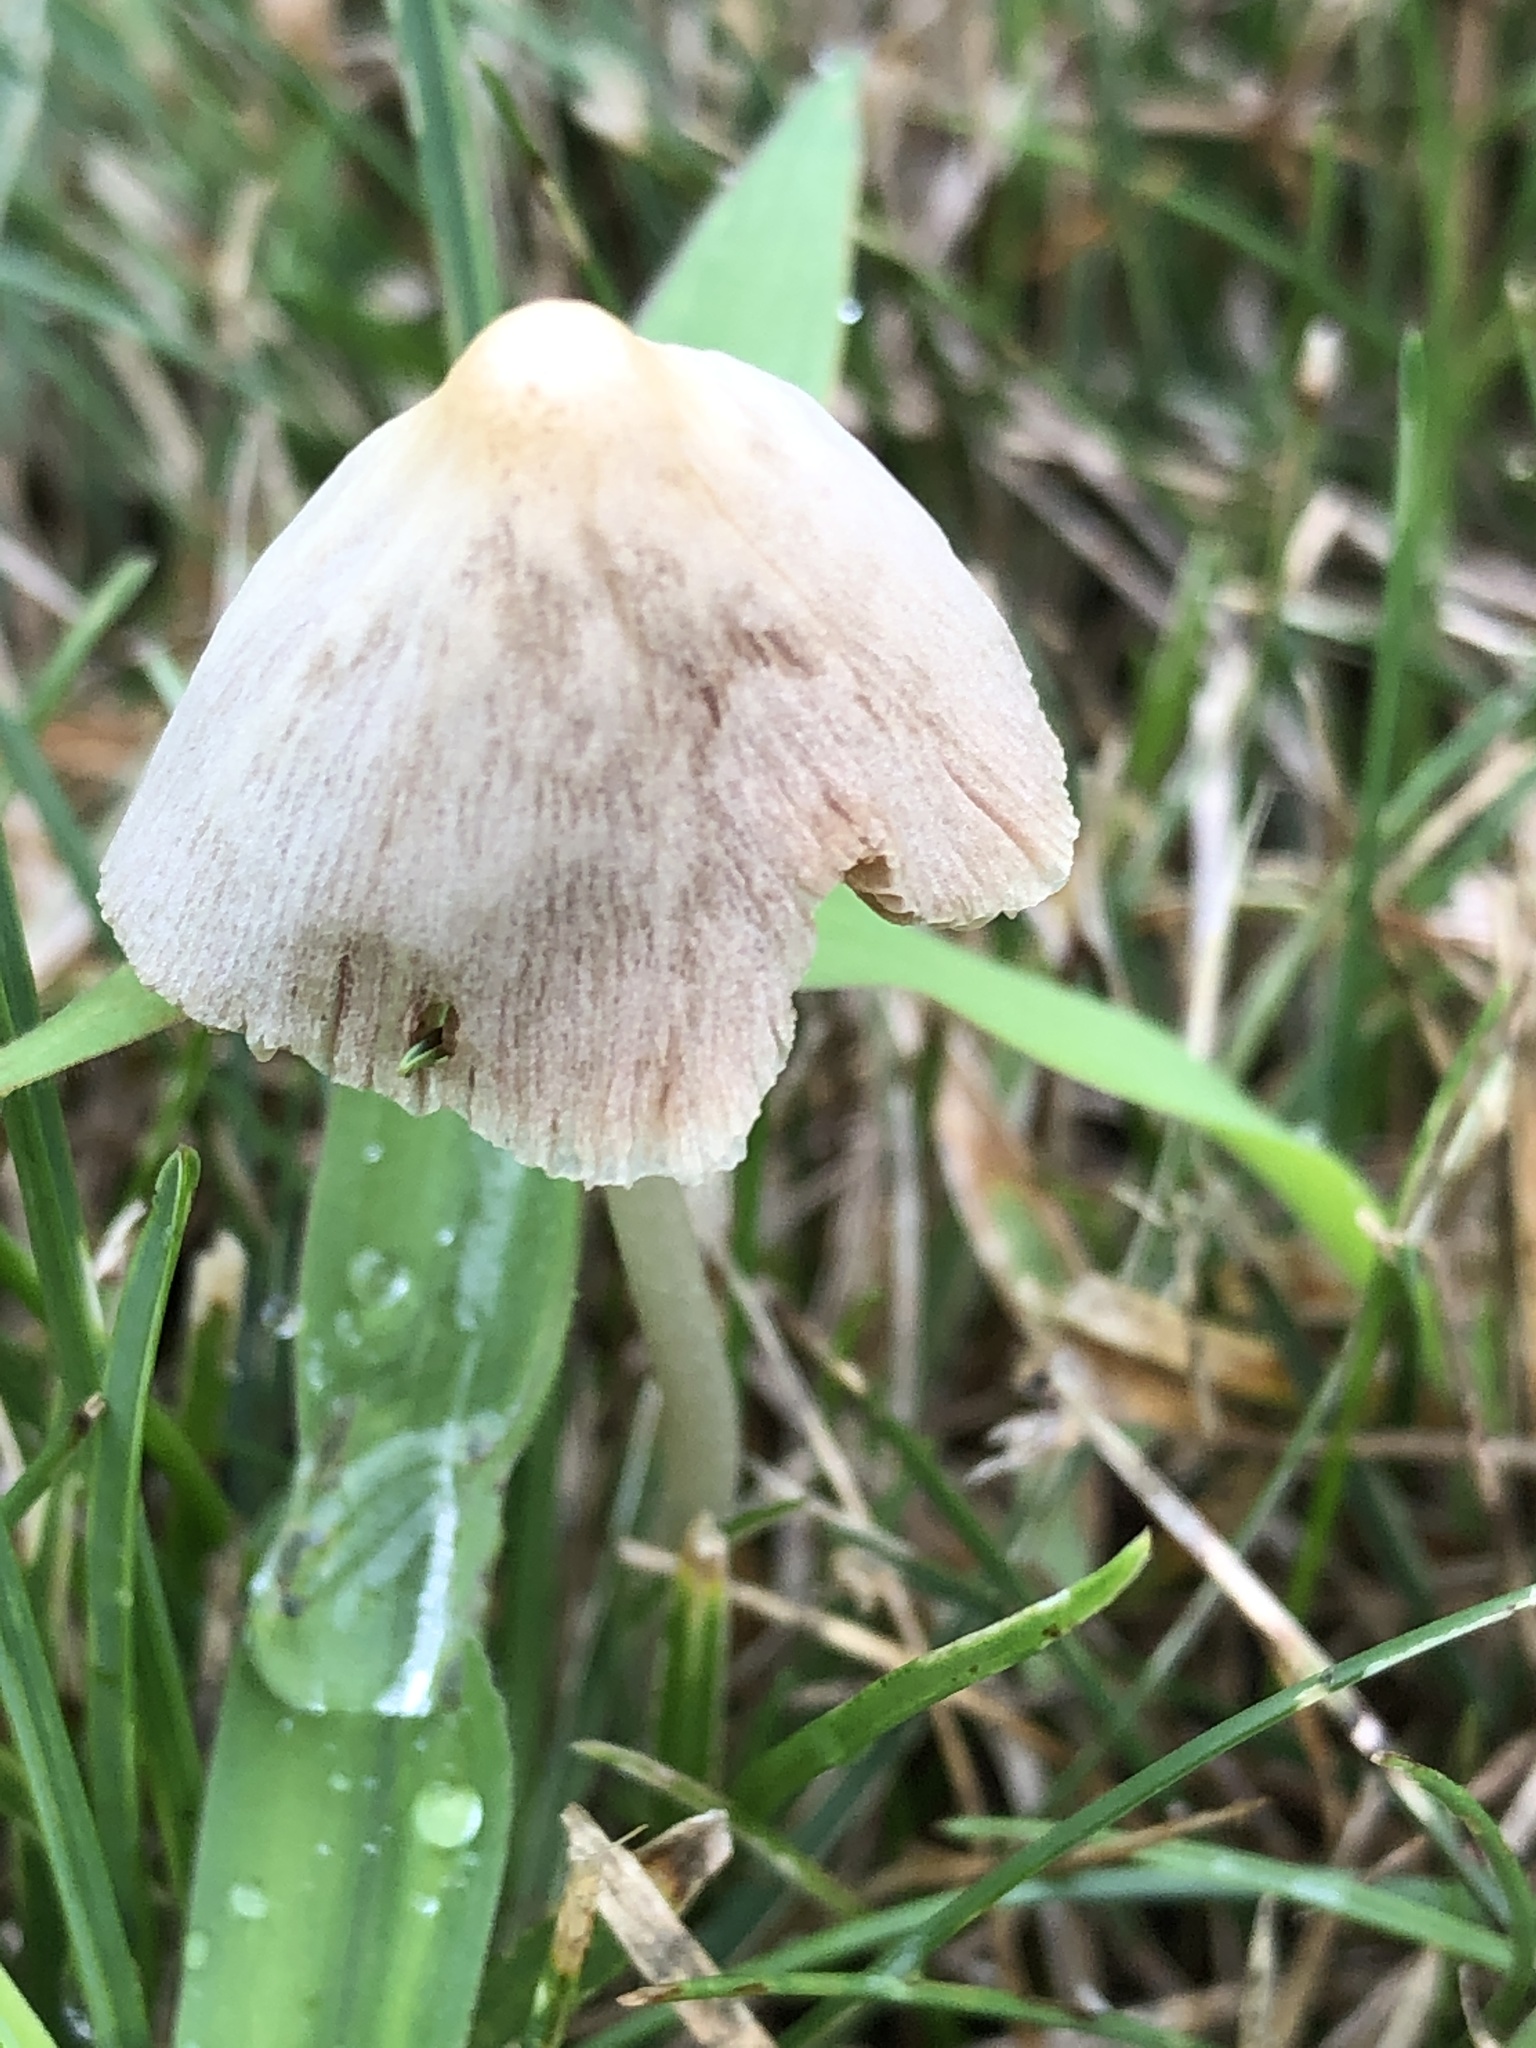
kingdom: Fungi
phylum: Basidiomycota
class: Agaricomycetes
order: Agaricales
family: Bolbitiaceae
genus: Conocybe
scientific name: Conocybe apala
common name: Milky conecap
